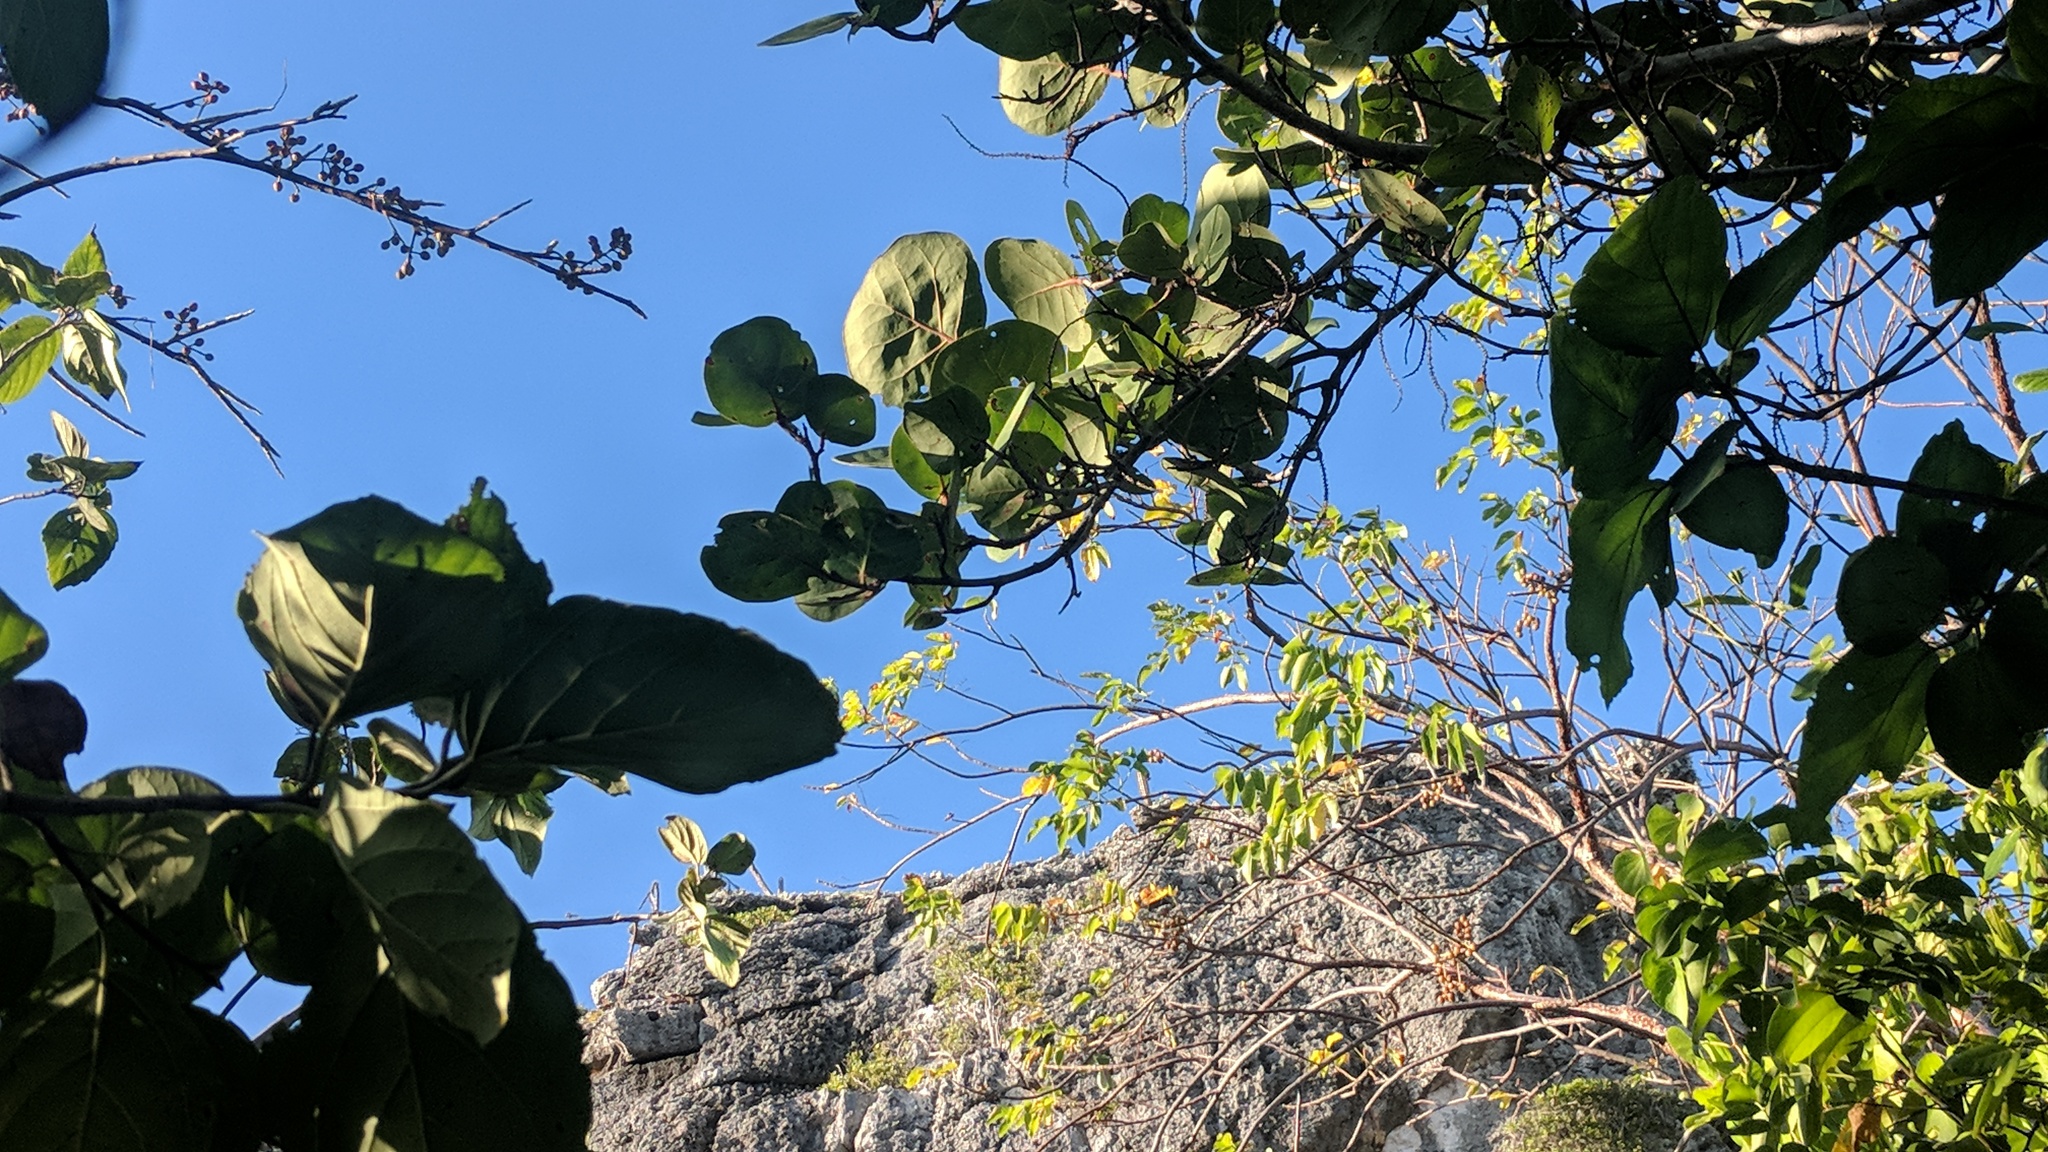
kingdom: Plantae
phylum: Tracheophyta
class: Magnoliopsida
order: Caryophyllales
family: Polygonaceae
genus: Coccoloba
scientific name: Coccoloba uvifera
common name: Seagrape
